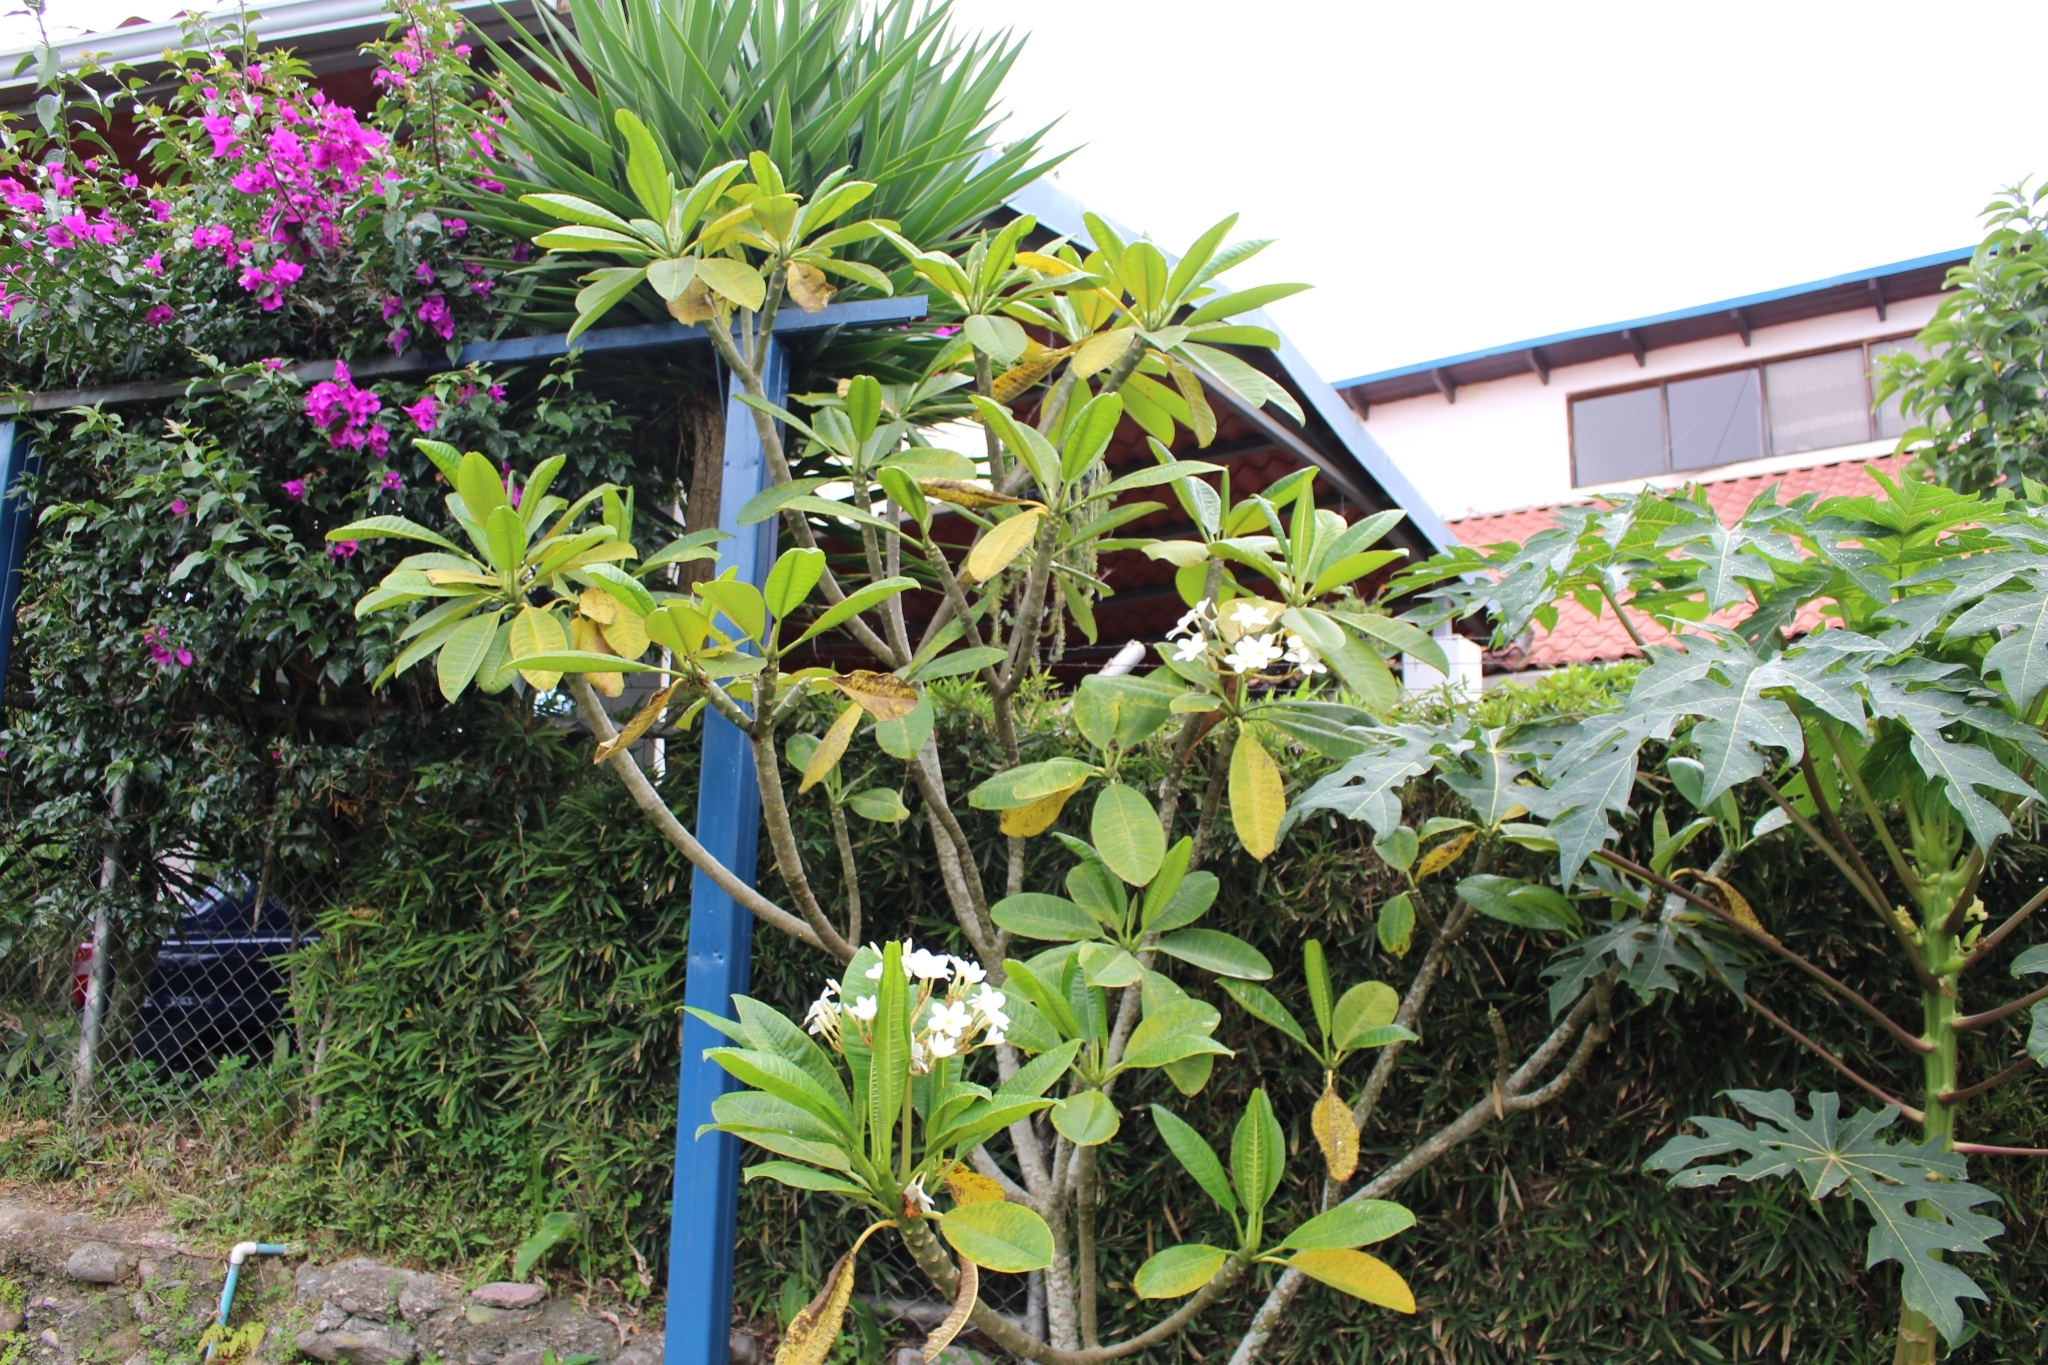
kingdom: Plantae
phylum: Tracheophyta
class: Magnoliopsida
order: Gentianales
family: Apocynaceae
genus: Plumeria
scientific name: Plumeria rubra
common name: Pagoda-tree
